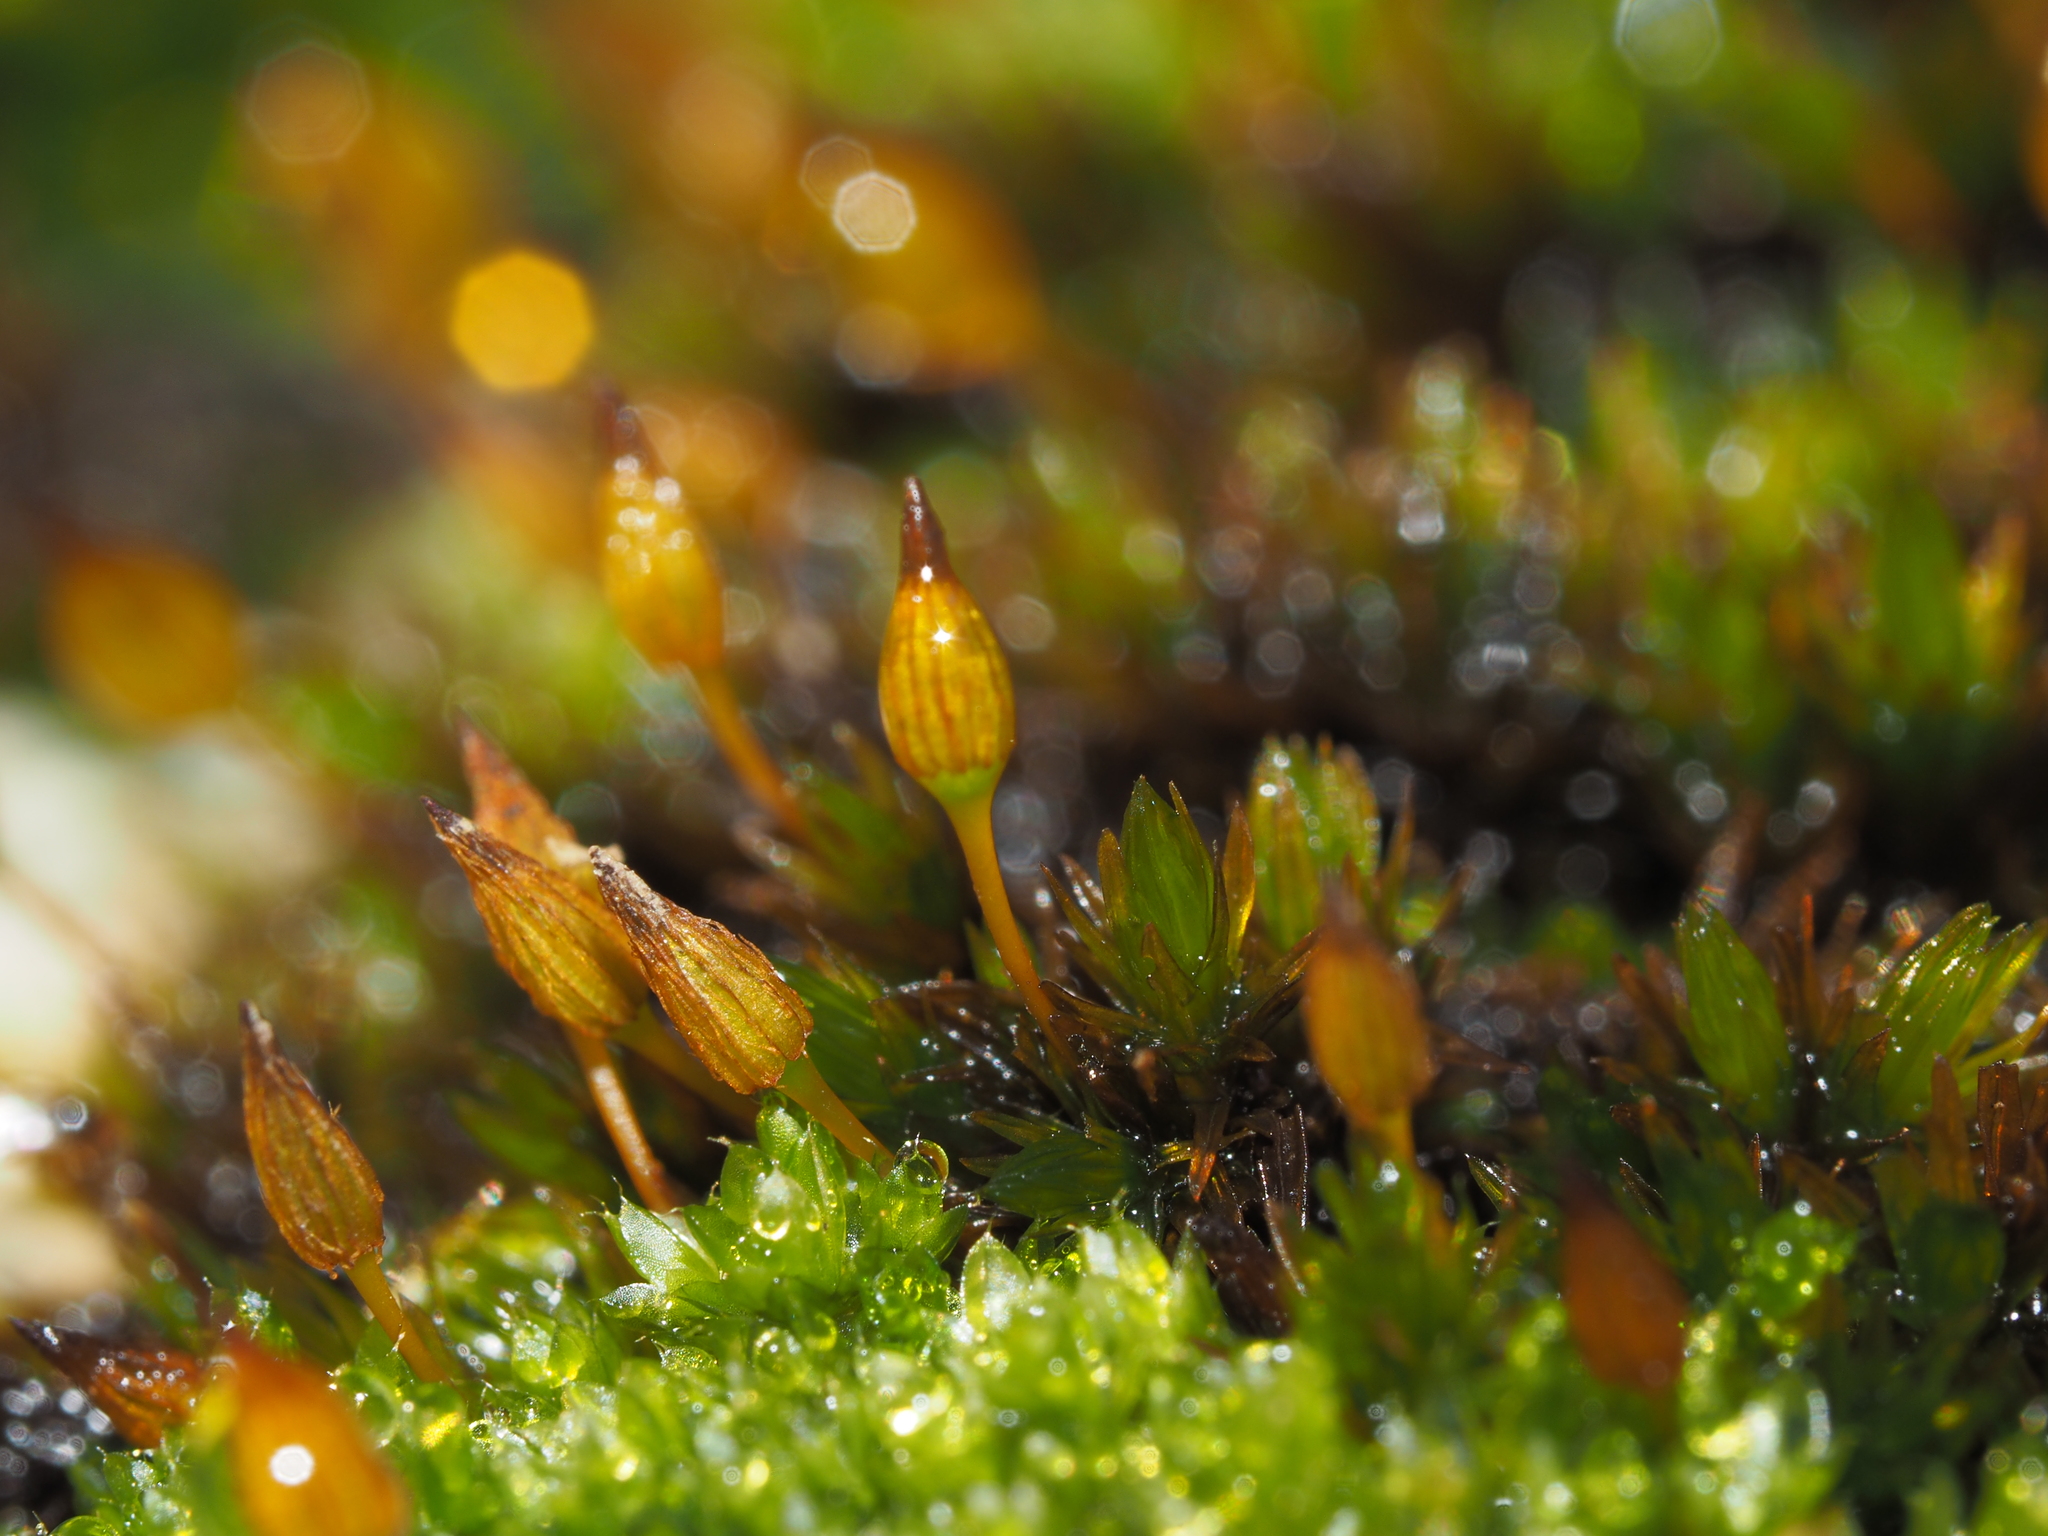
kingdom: Plantae
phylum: Bryophyta
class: Bryopsida
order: Orthotrichales
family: Orthotrichaceae
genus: Orthotrichum
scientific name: Orthotrichum anomalum
